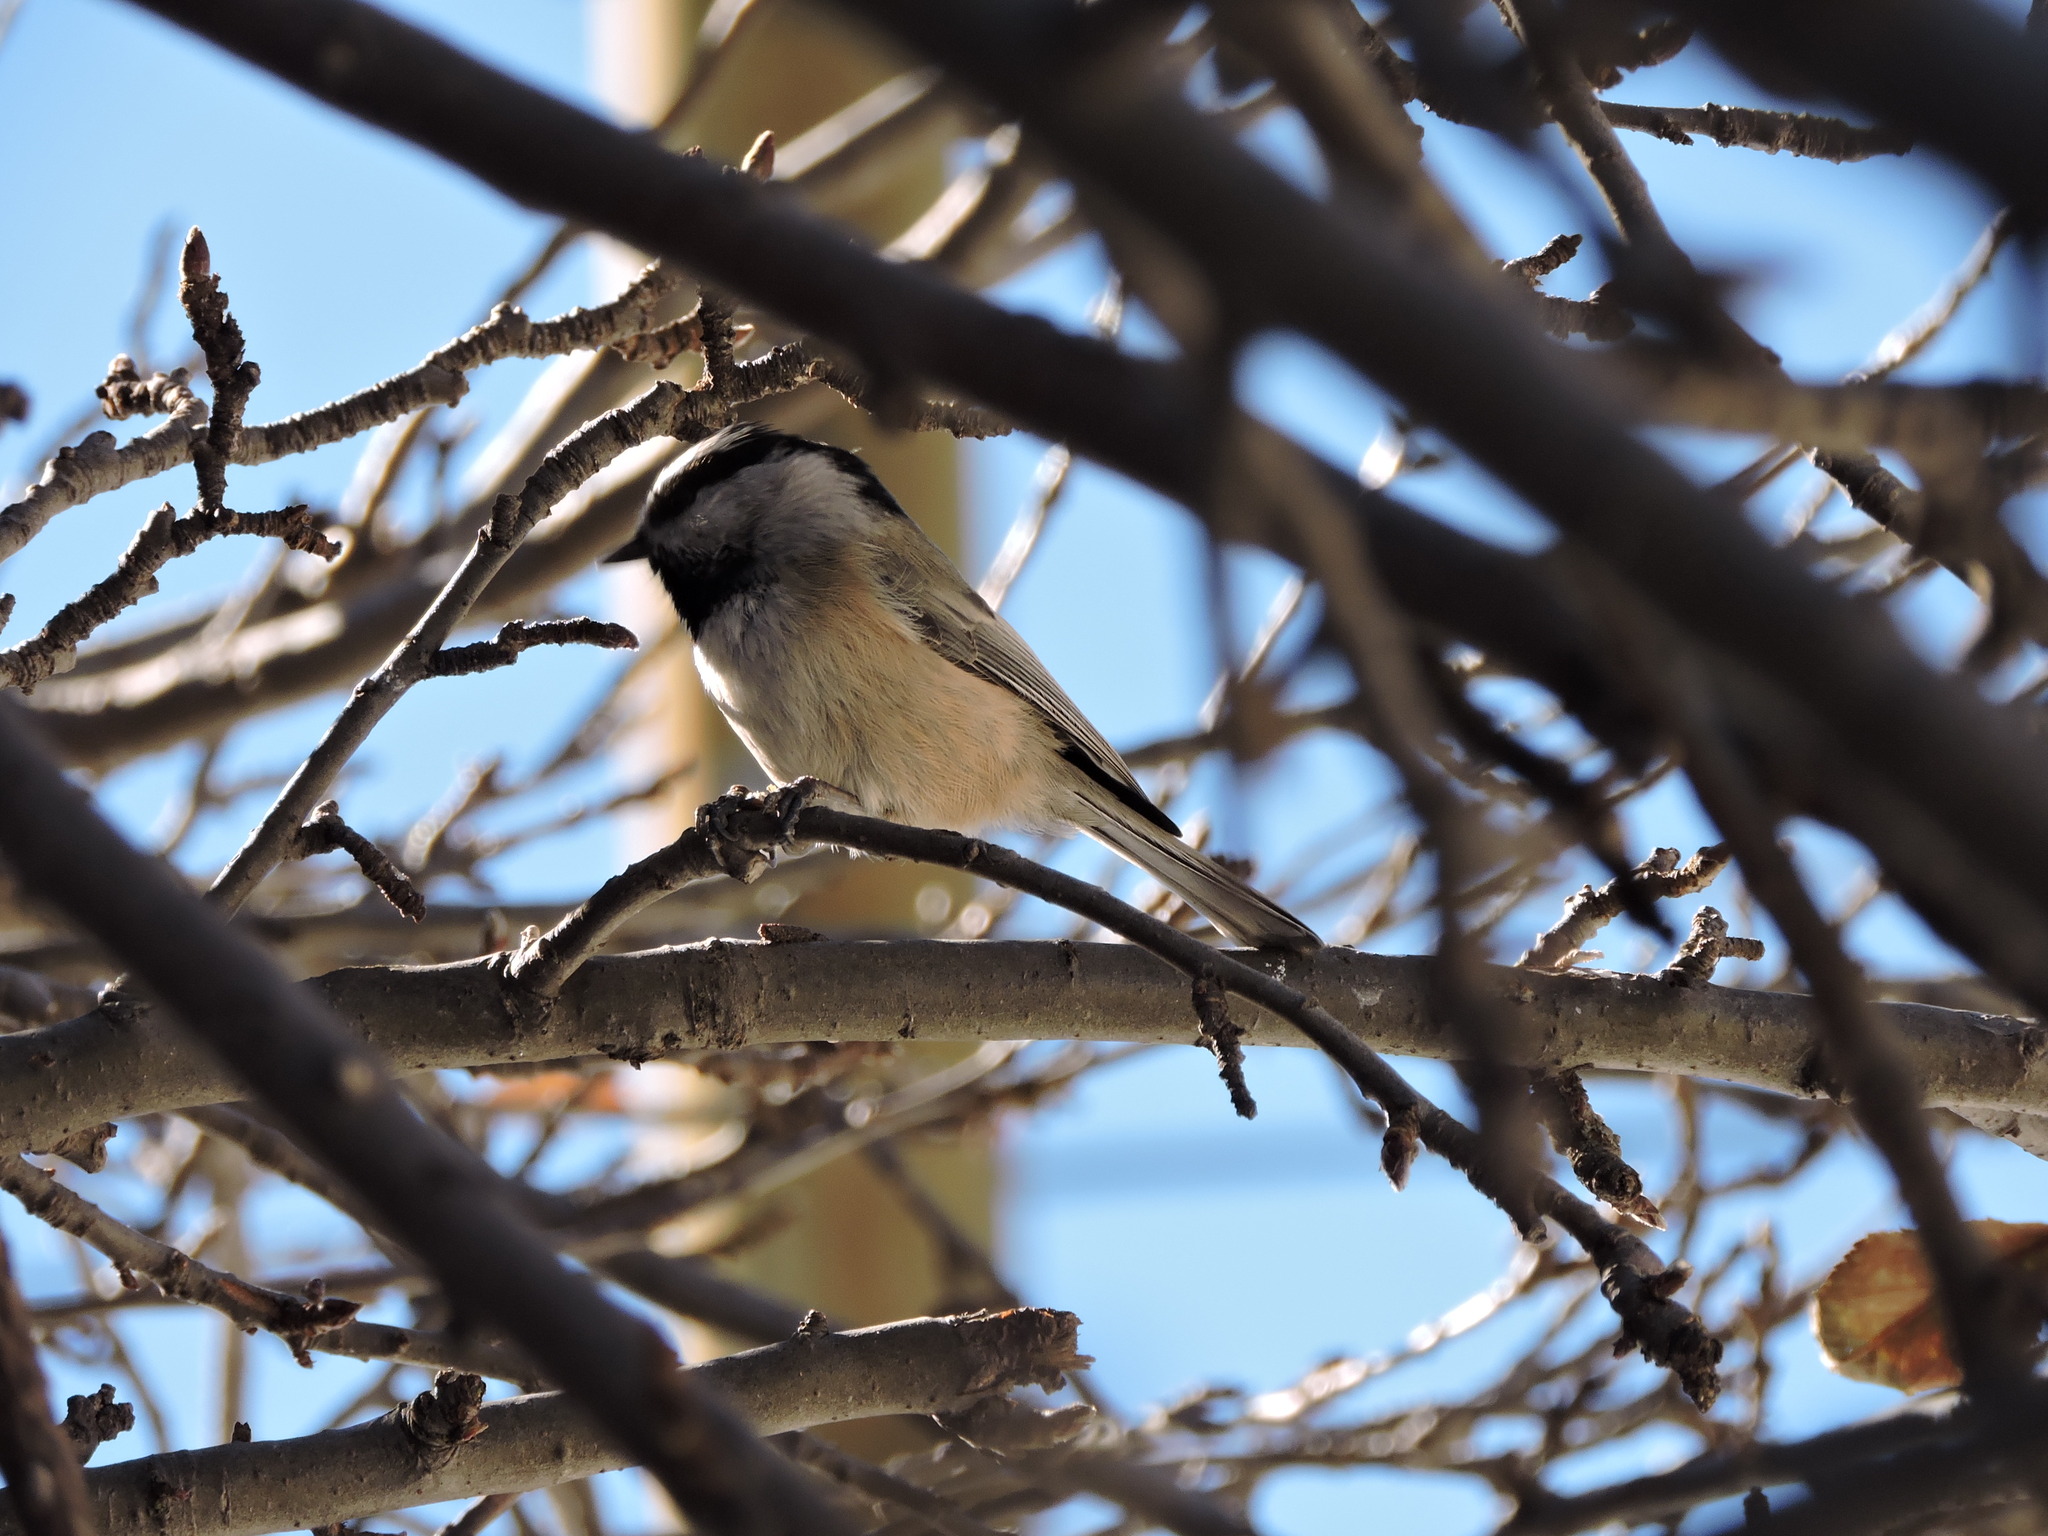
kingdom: Animalia
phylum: Chordata
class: Aves
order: Passeriformes
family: Paridae
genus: Poecile
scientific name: Poecile gambeli
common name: Mountain chickadee
